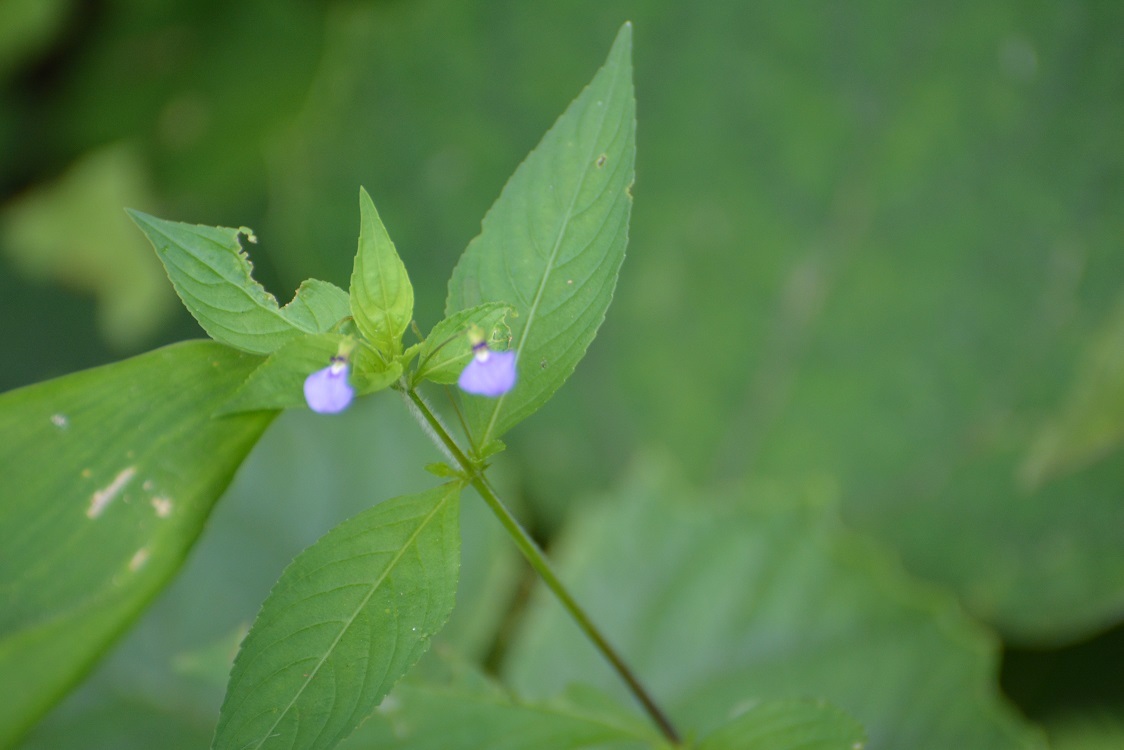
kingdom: Plantae
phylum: Tracheophyta
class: Magnoliopsida
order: Malpighiales
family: Violaceae
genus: Pombalia
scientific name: Pombalia glabra
